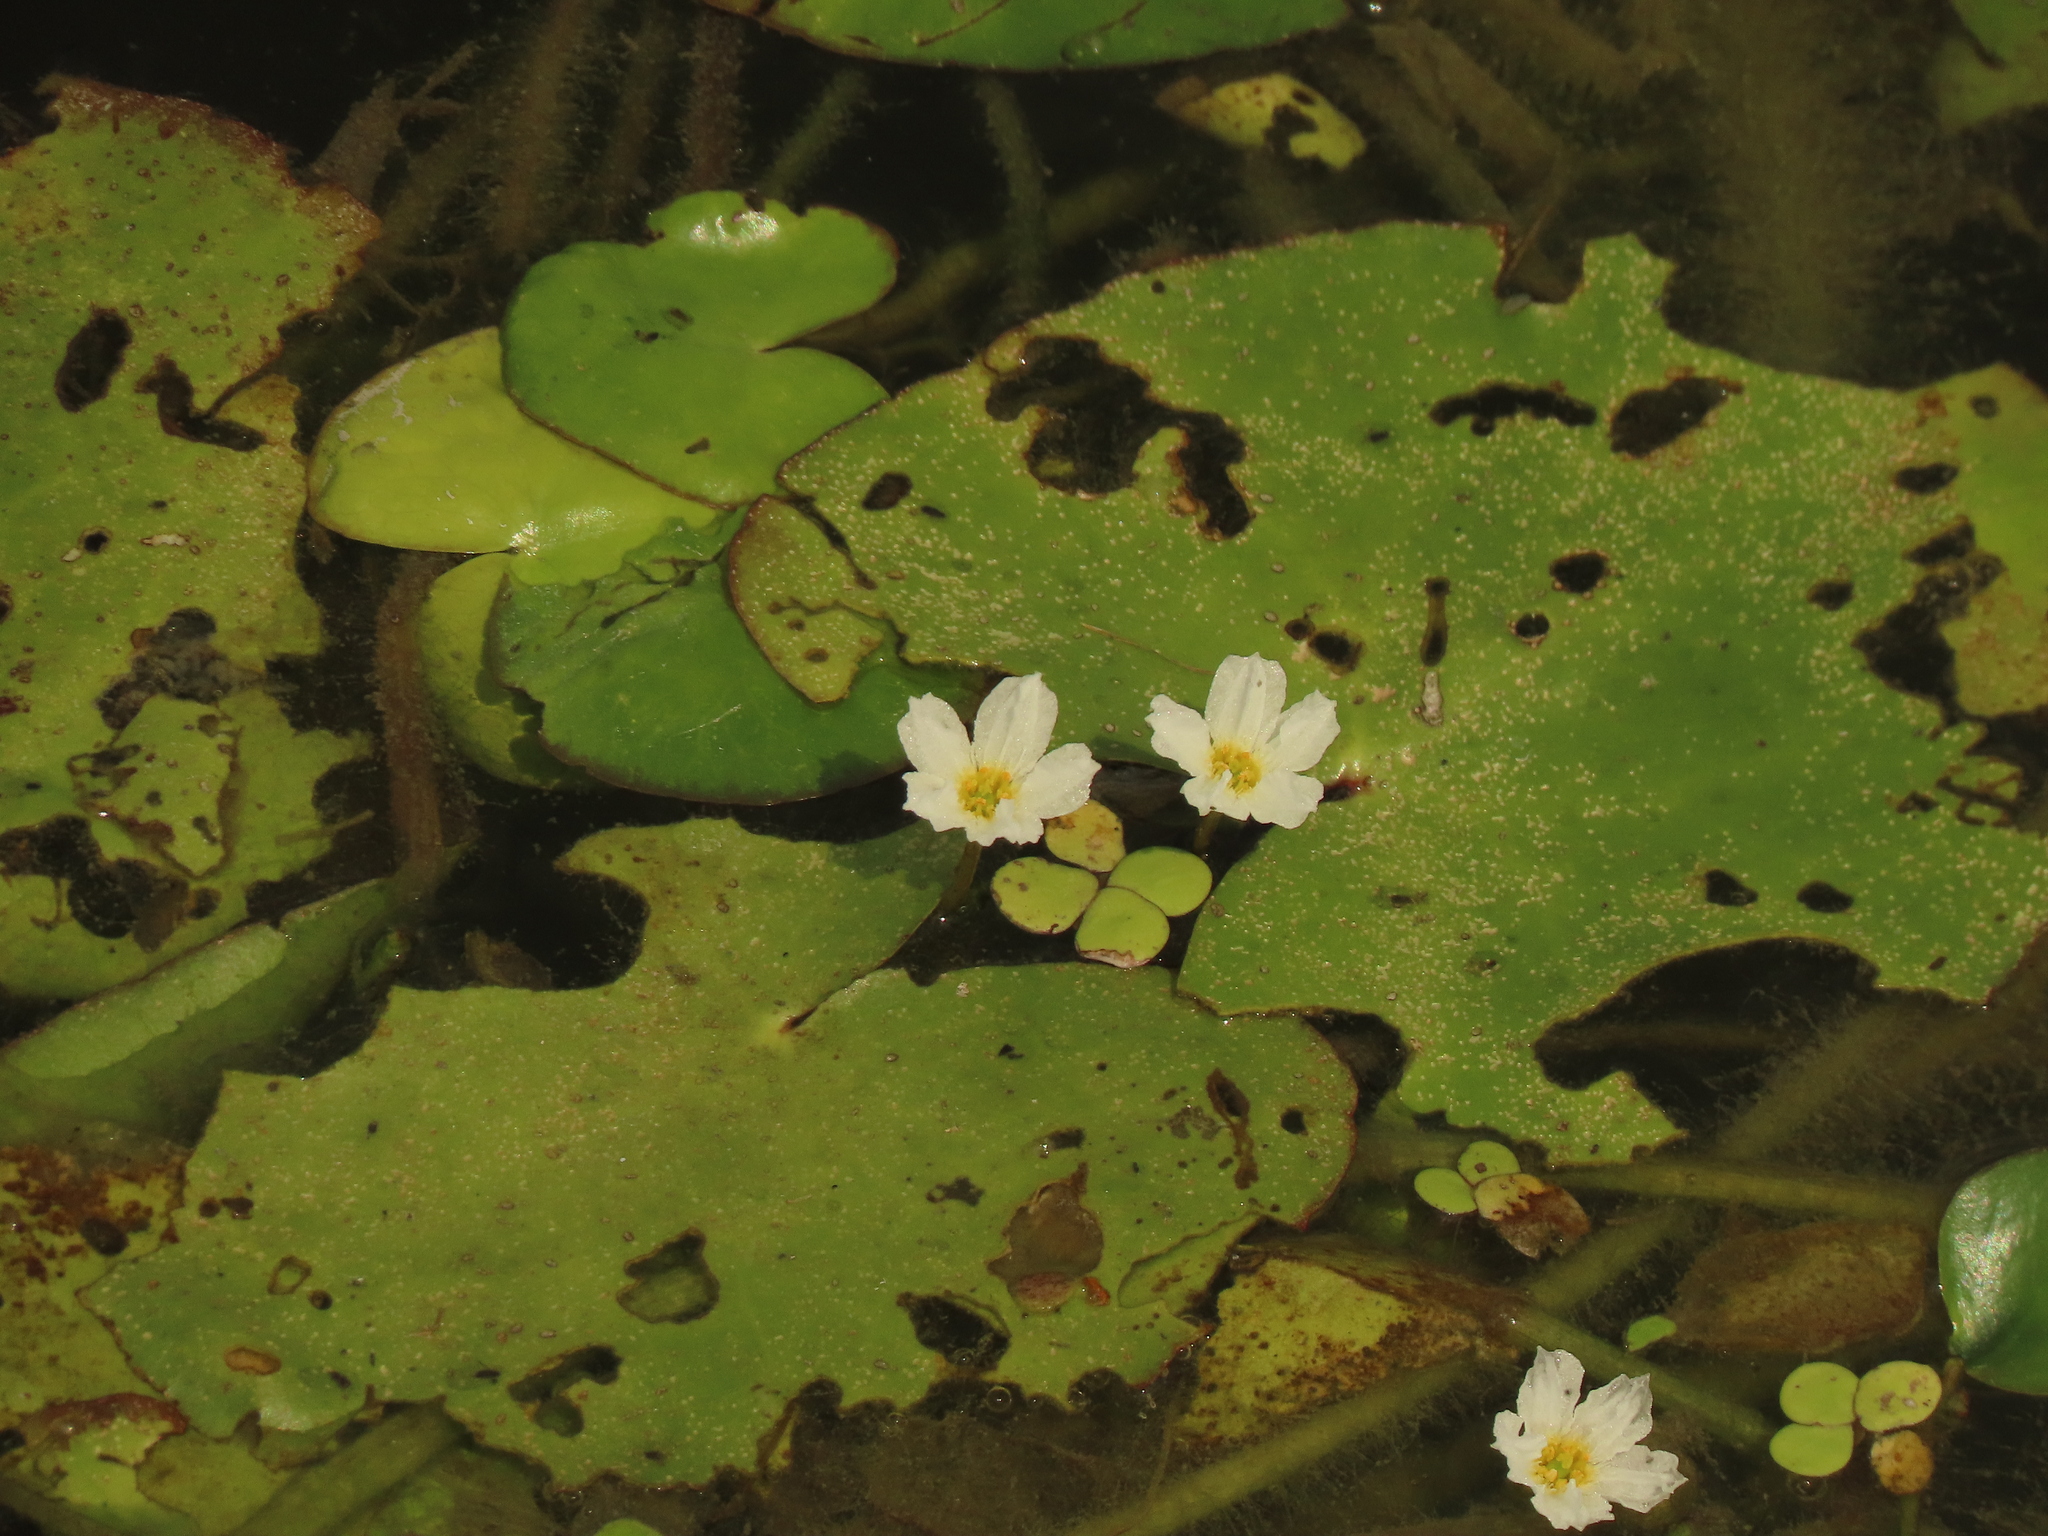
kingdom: Plantae
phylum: Tracheophyta
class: Liliopsida
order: Alismatales
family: Araceae
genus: Spirodela
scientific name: Spirodela polyrhiza
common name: Great duckweed
